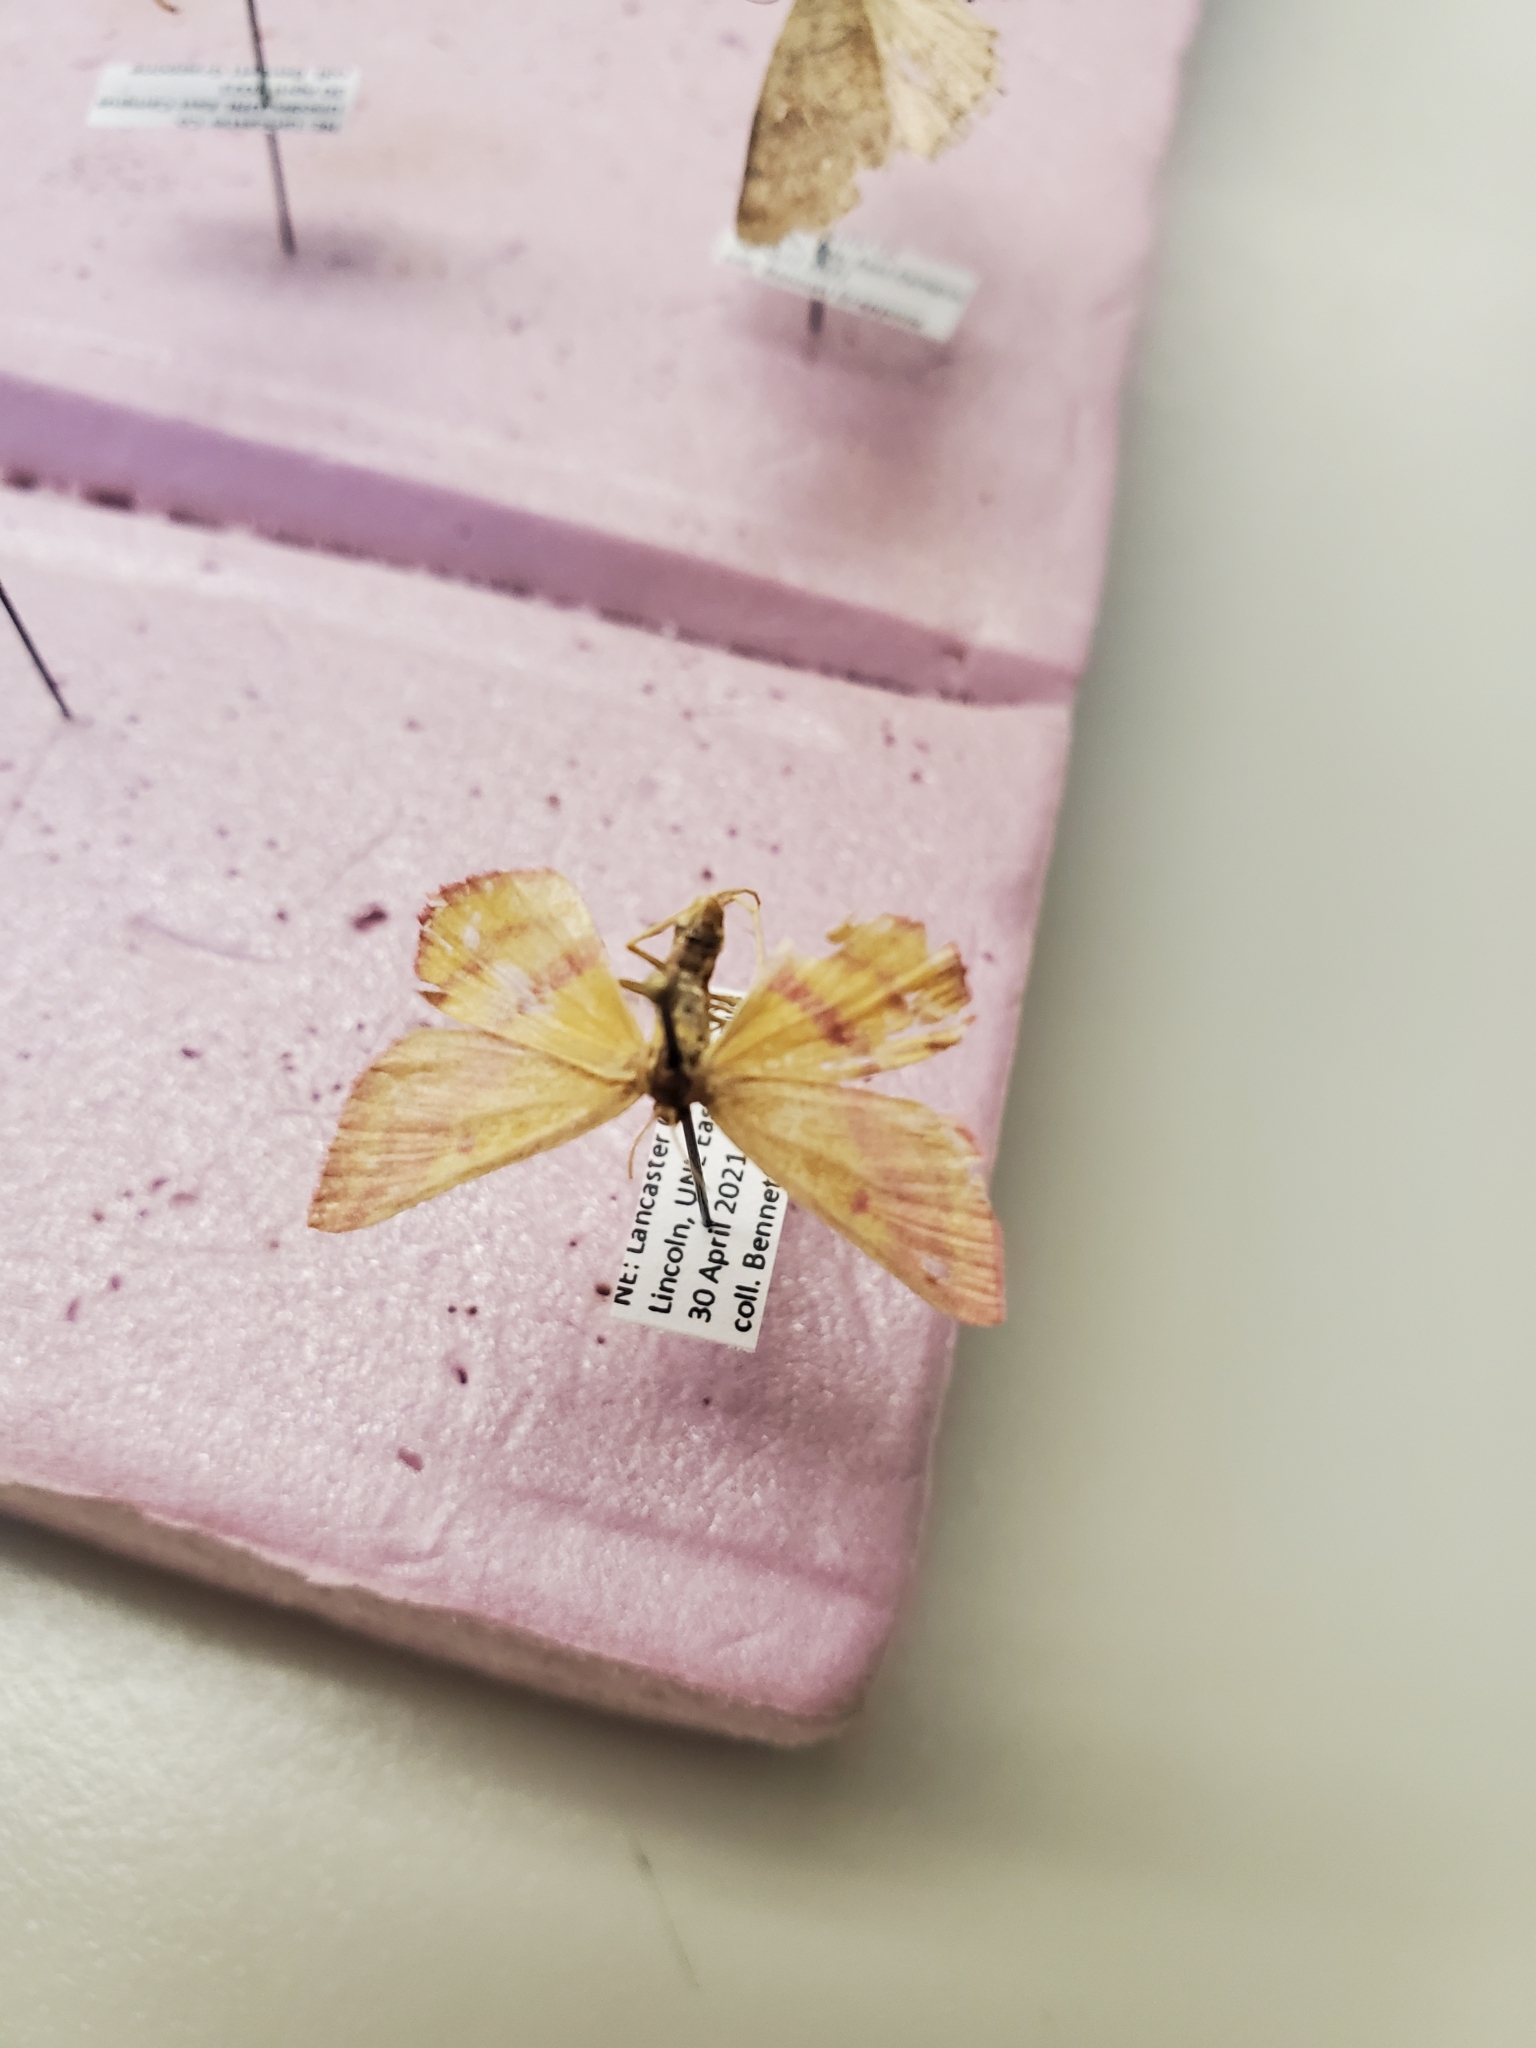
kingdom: Animalia
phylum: Arthropoda
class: Insecta
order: Lepidoptera
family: Geometridae
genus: Haematopis
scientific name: Haematopis grataria
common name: Chickweed geometer
